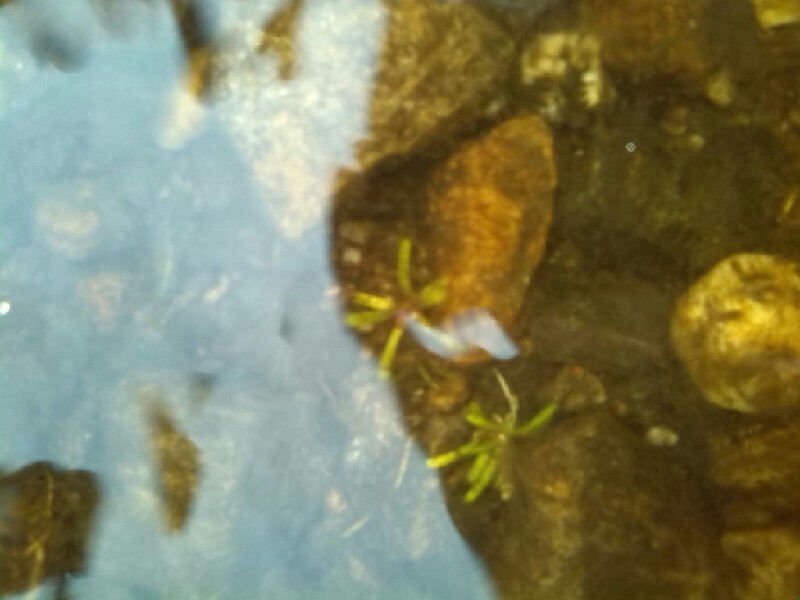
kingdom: Plantae
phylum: Tracheophyta
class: Magnoliopsida
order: Asterales
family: Campanulaceae
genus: Lobelia
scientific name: Lobelia dortmanna
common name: Water lobelia
